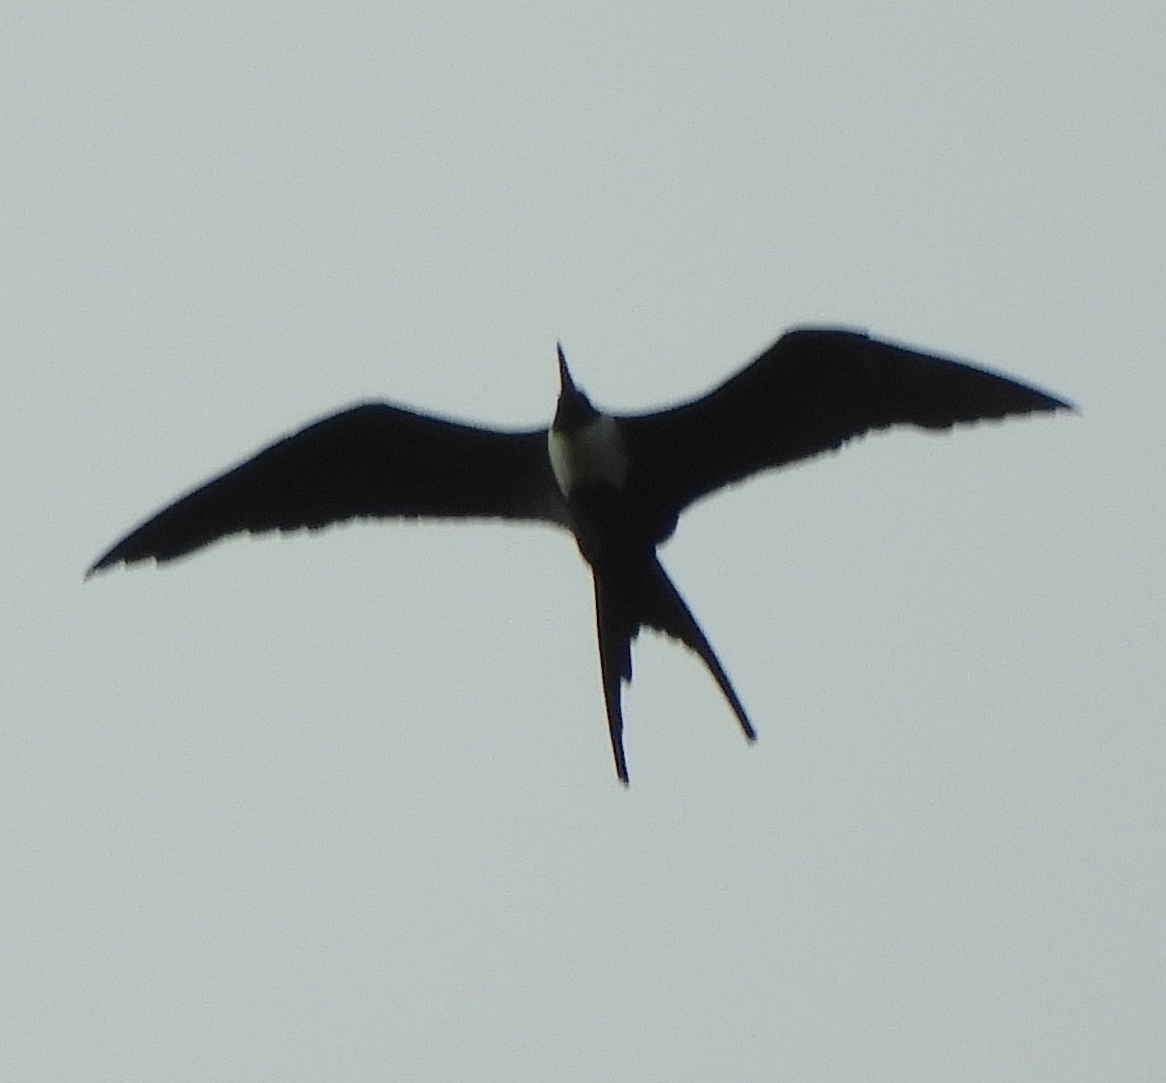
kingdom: Animalia
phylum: Chordata
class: Aves
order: Suliformes
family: Fregatidae
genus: Fregata
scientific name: Fregata magnificens
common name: Magnificent frigatebird
